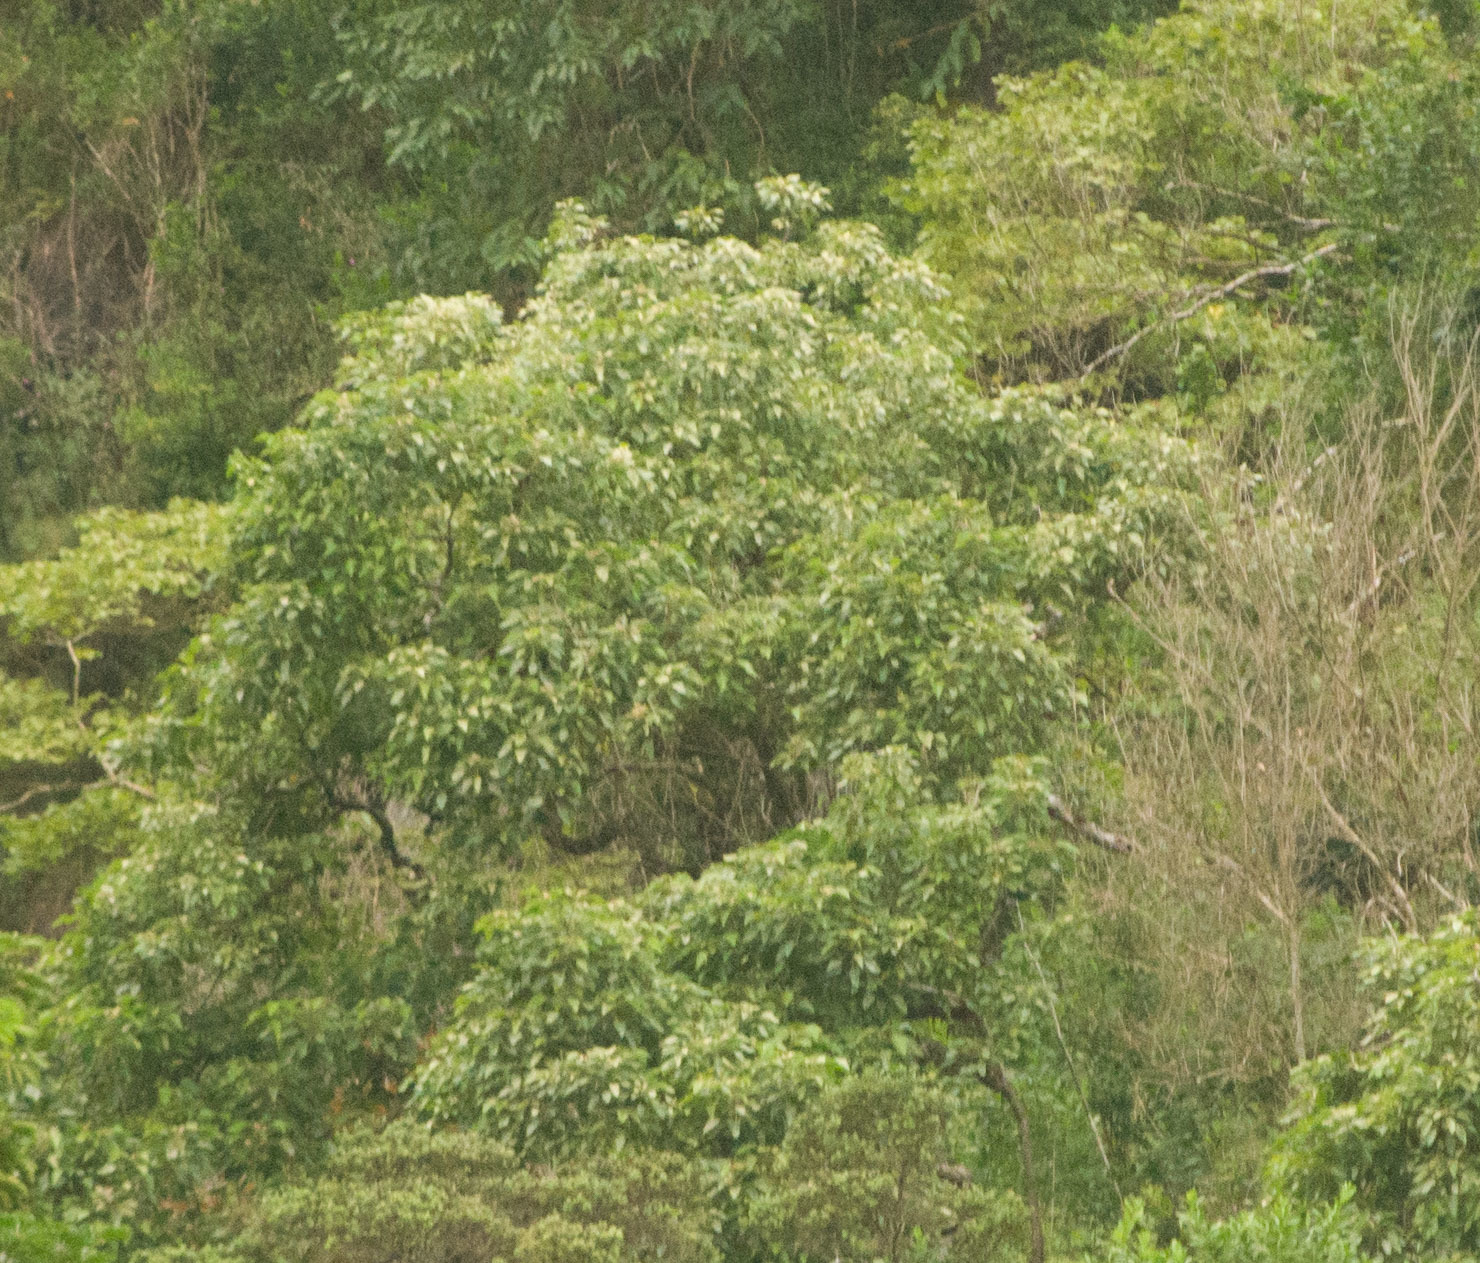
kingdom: Plantae
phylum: Tracheophyta
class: Magnoliopsida
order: Malpighiales
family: Euphorbiaceae
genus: Aleurites
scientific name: Aleurites moluccanus
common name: Candlenut tree
